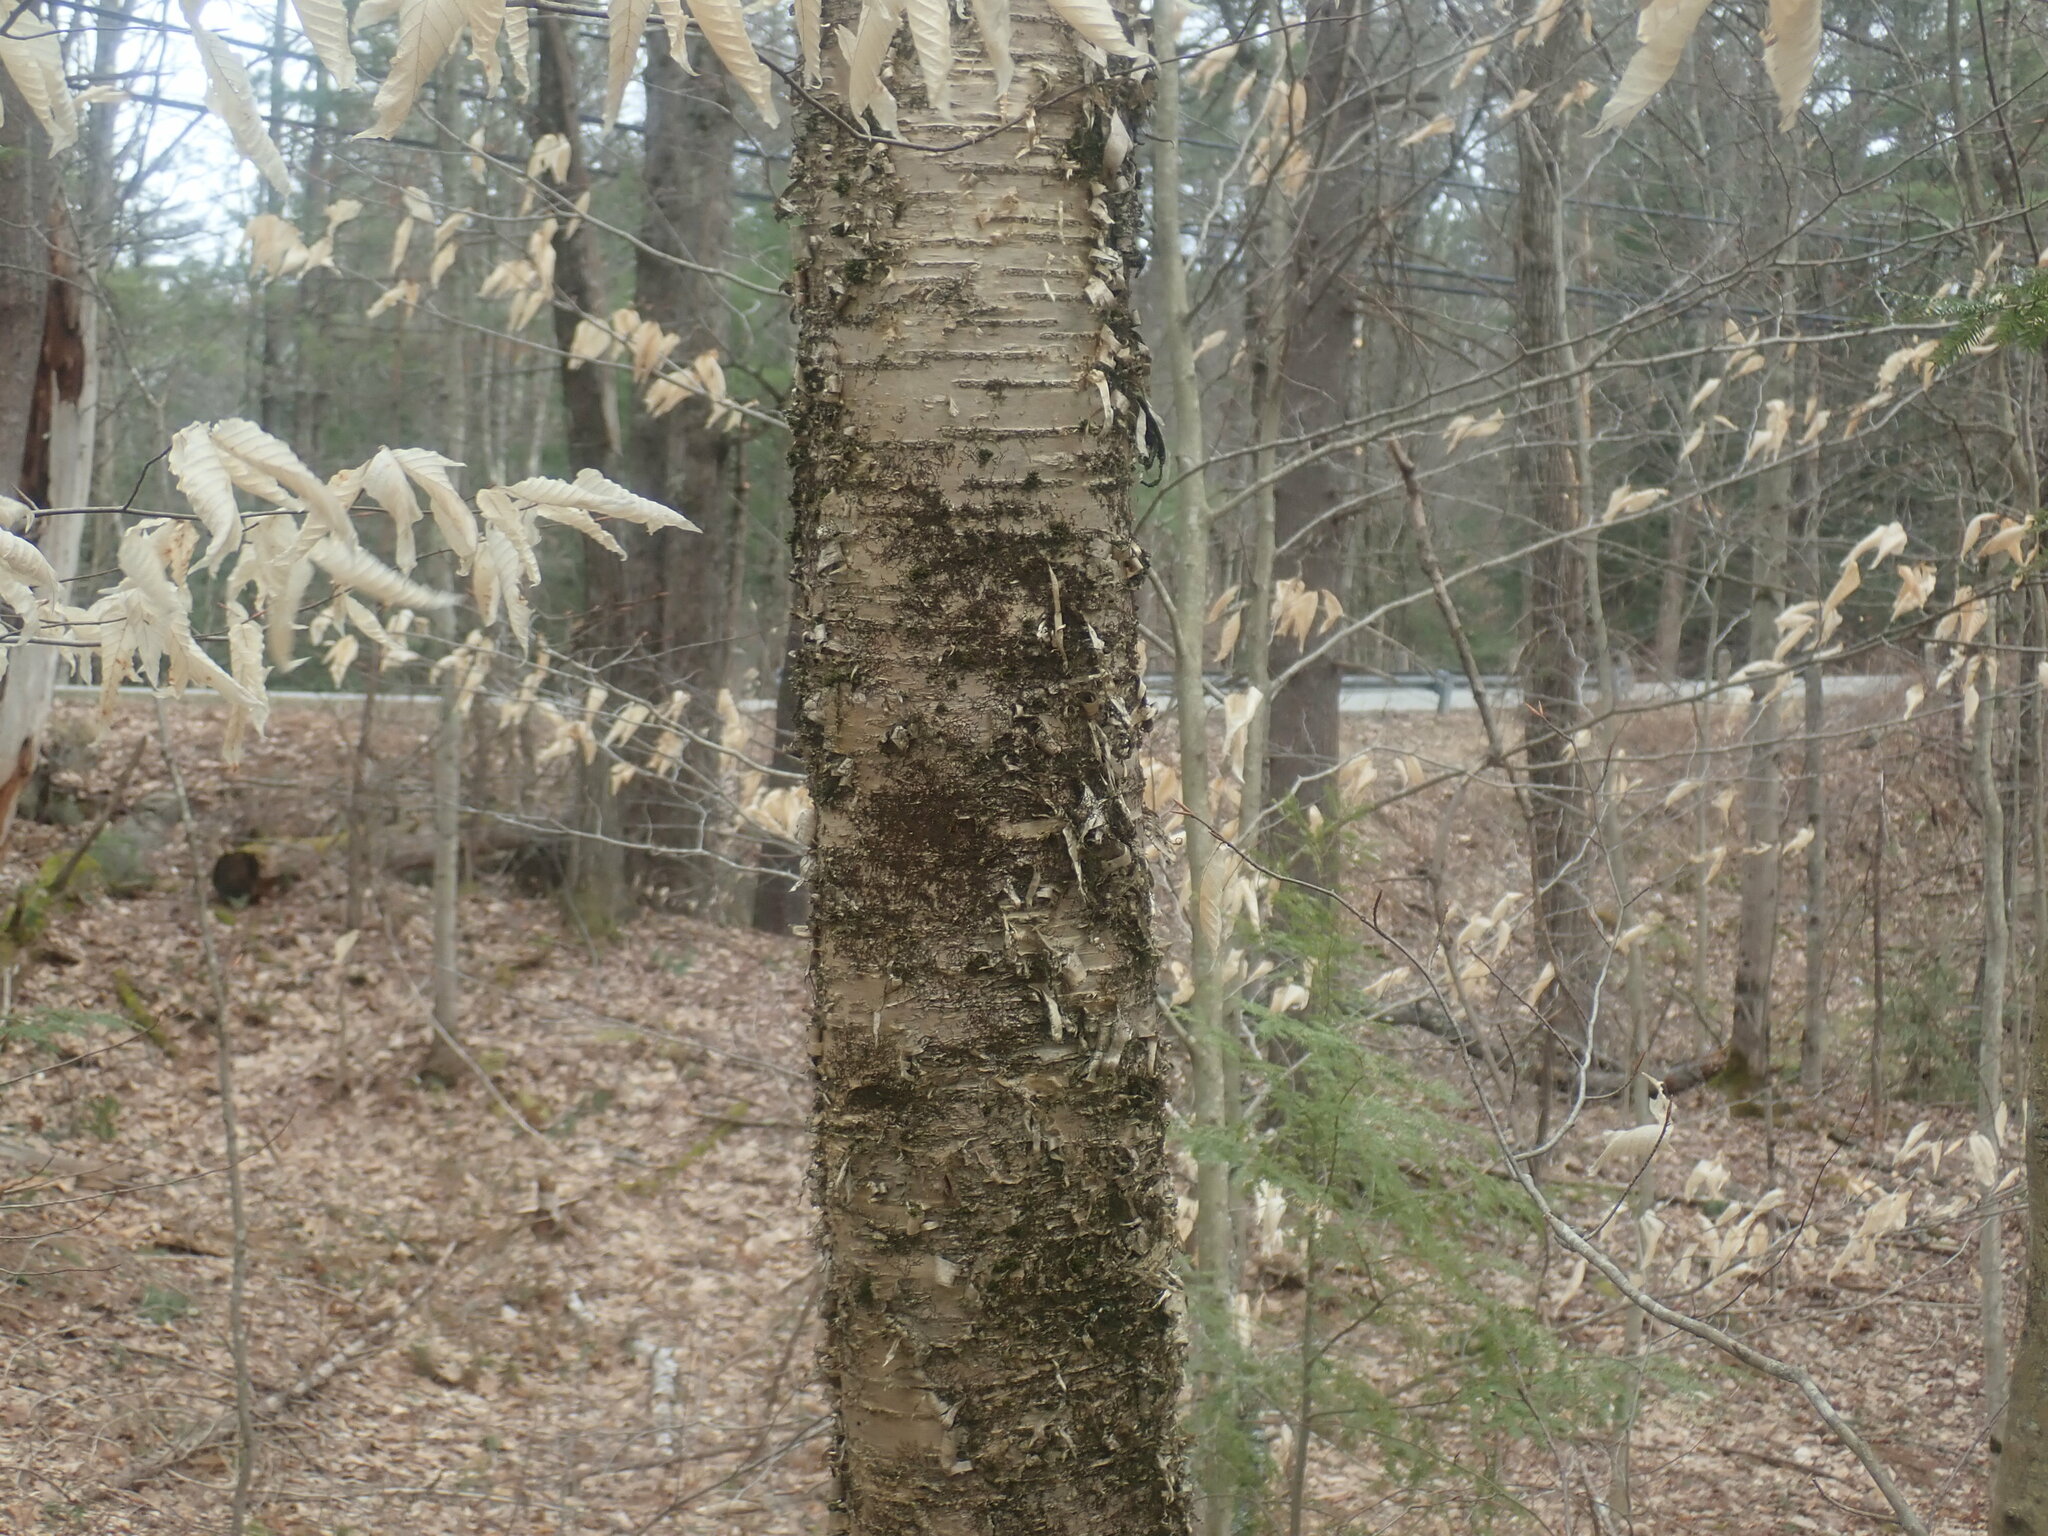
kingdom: Plantae
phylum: Tracheophyta
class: Magnoliopsida
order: Fagales
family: Betulaceae
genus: Betula
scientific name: Betula alleghaniensis
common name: Yellow birch
